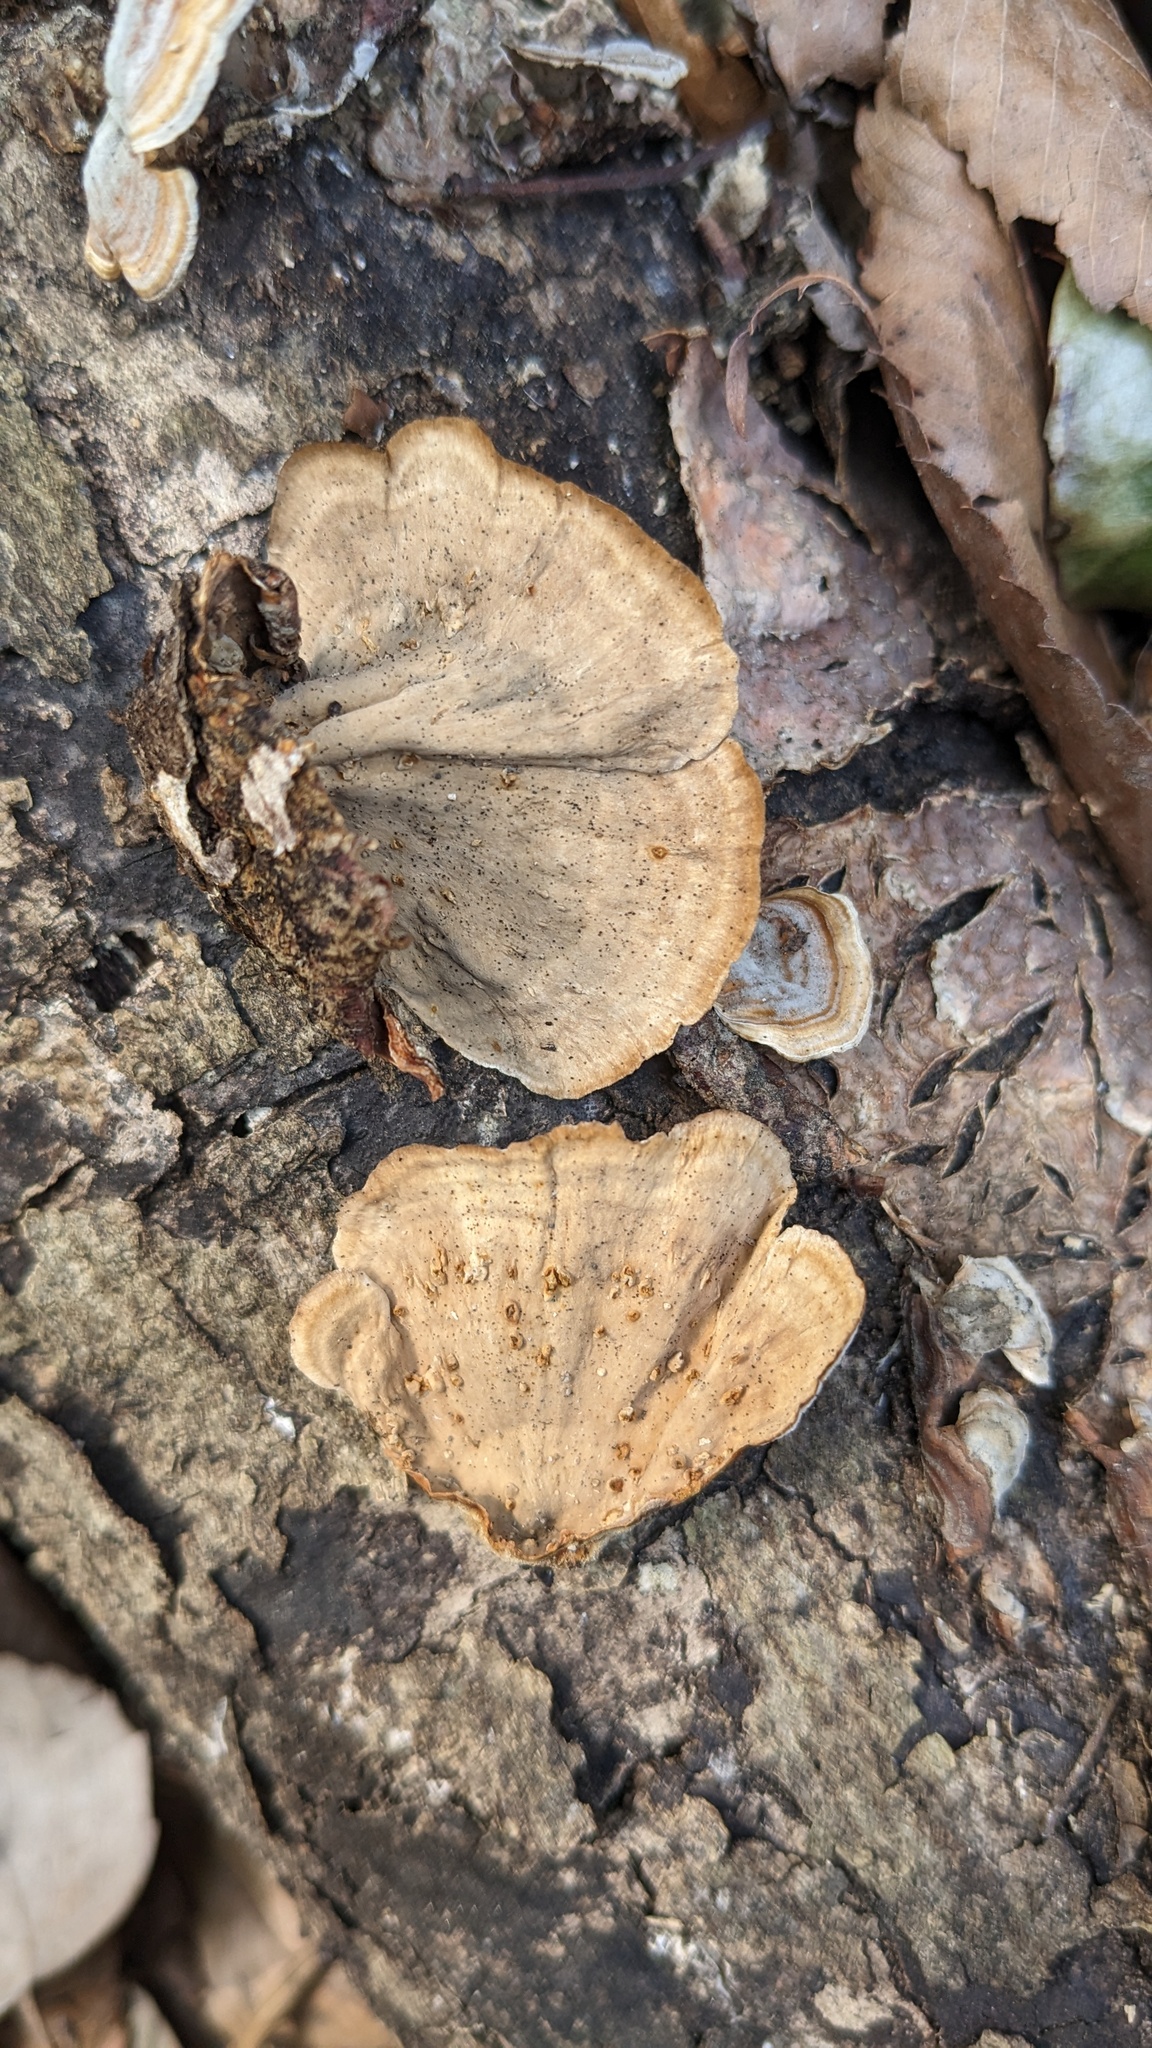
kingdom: Fungi
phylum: Basidiomycota
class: Agaricomycetes
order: Russulales
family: Stereaceae
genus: Stereum
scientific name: Stereum ostrea
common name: False turkeytail
